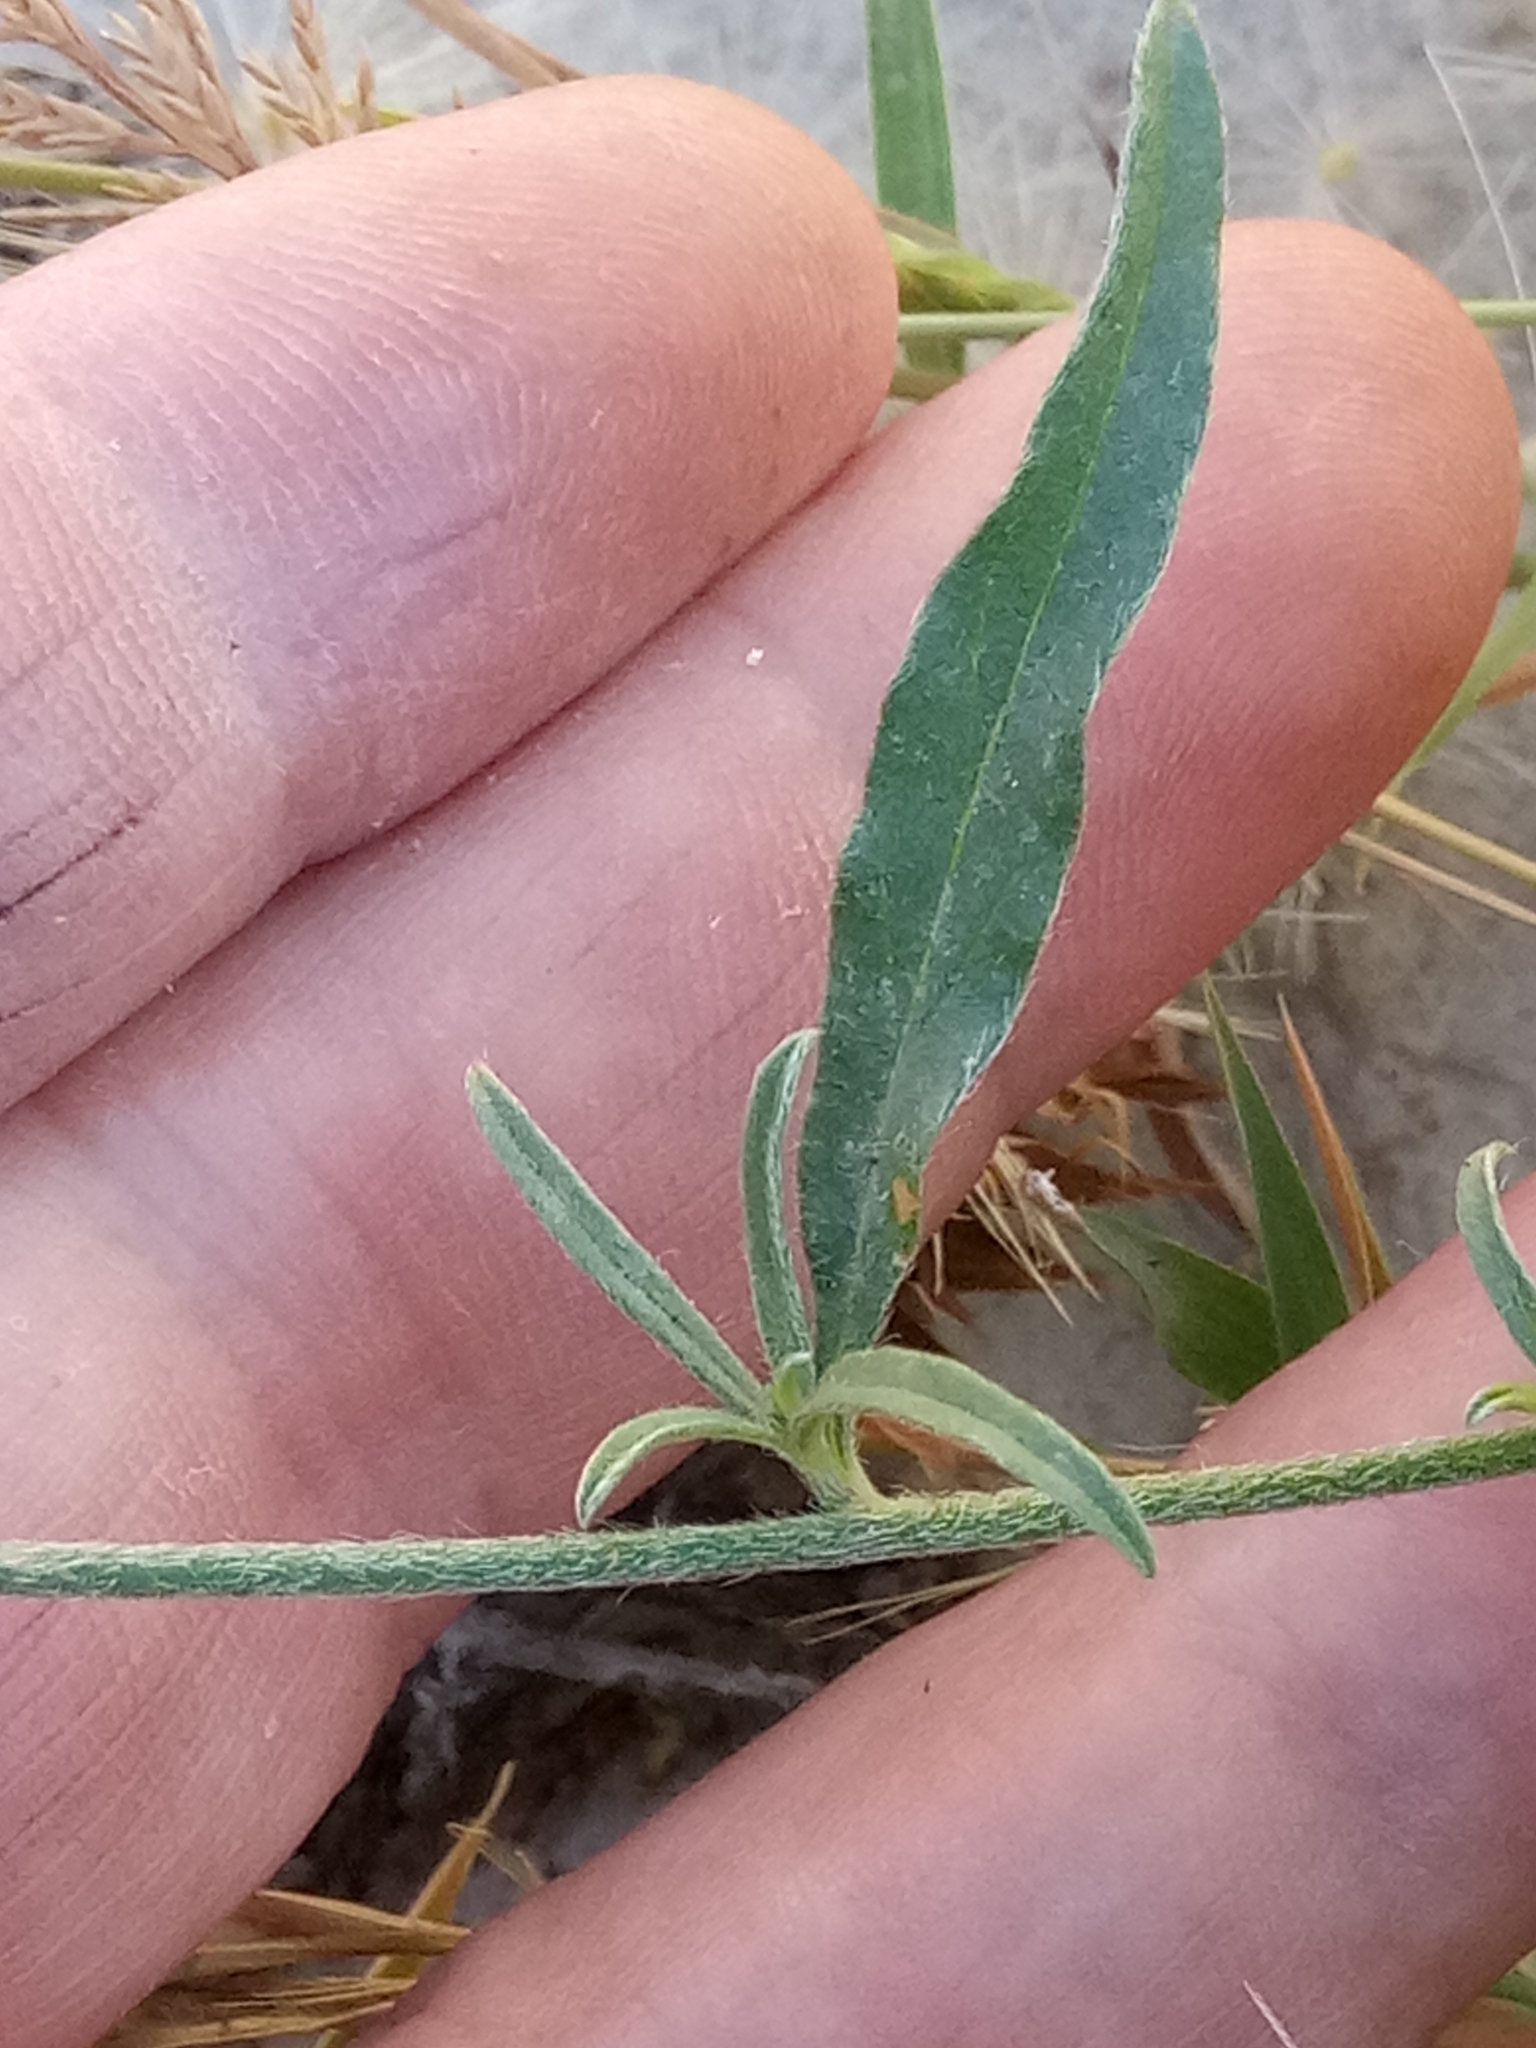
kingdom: Plantae
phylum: Tracheophyta
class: Magnoliopsida
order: Solanales
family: Convolvulaceae
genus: Convolvulus
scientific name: Convolvulus cantabrica
